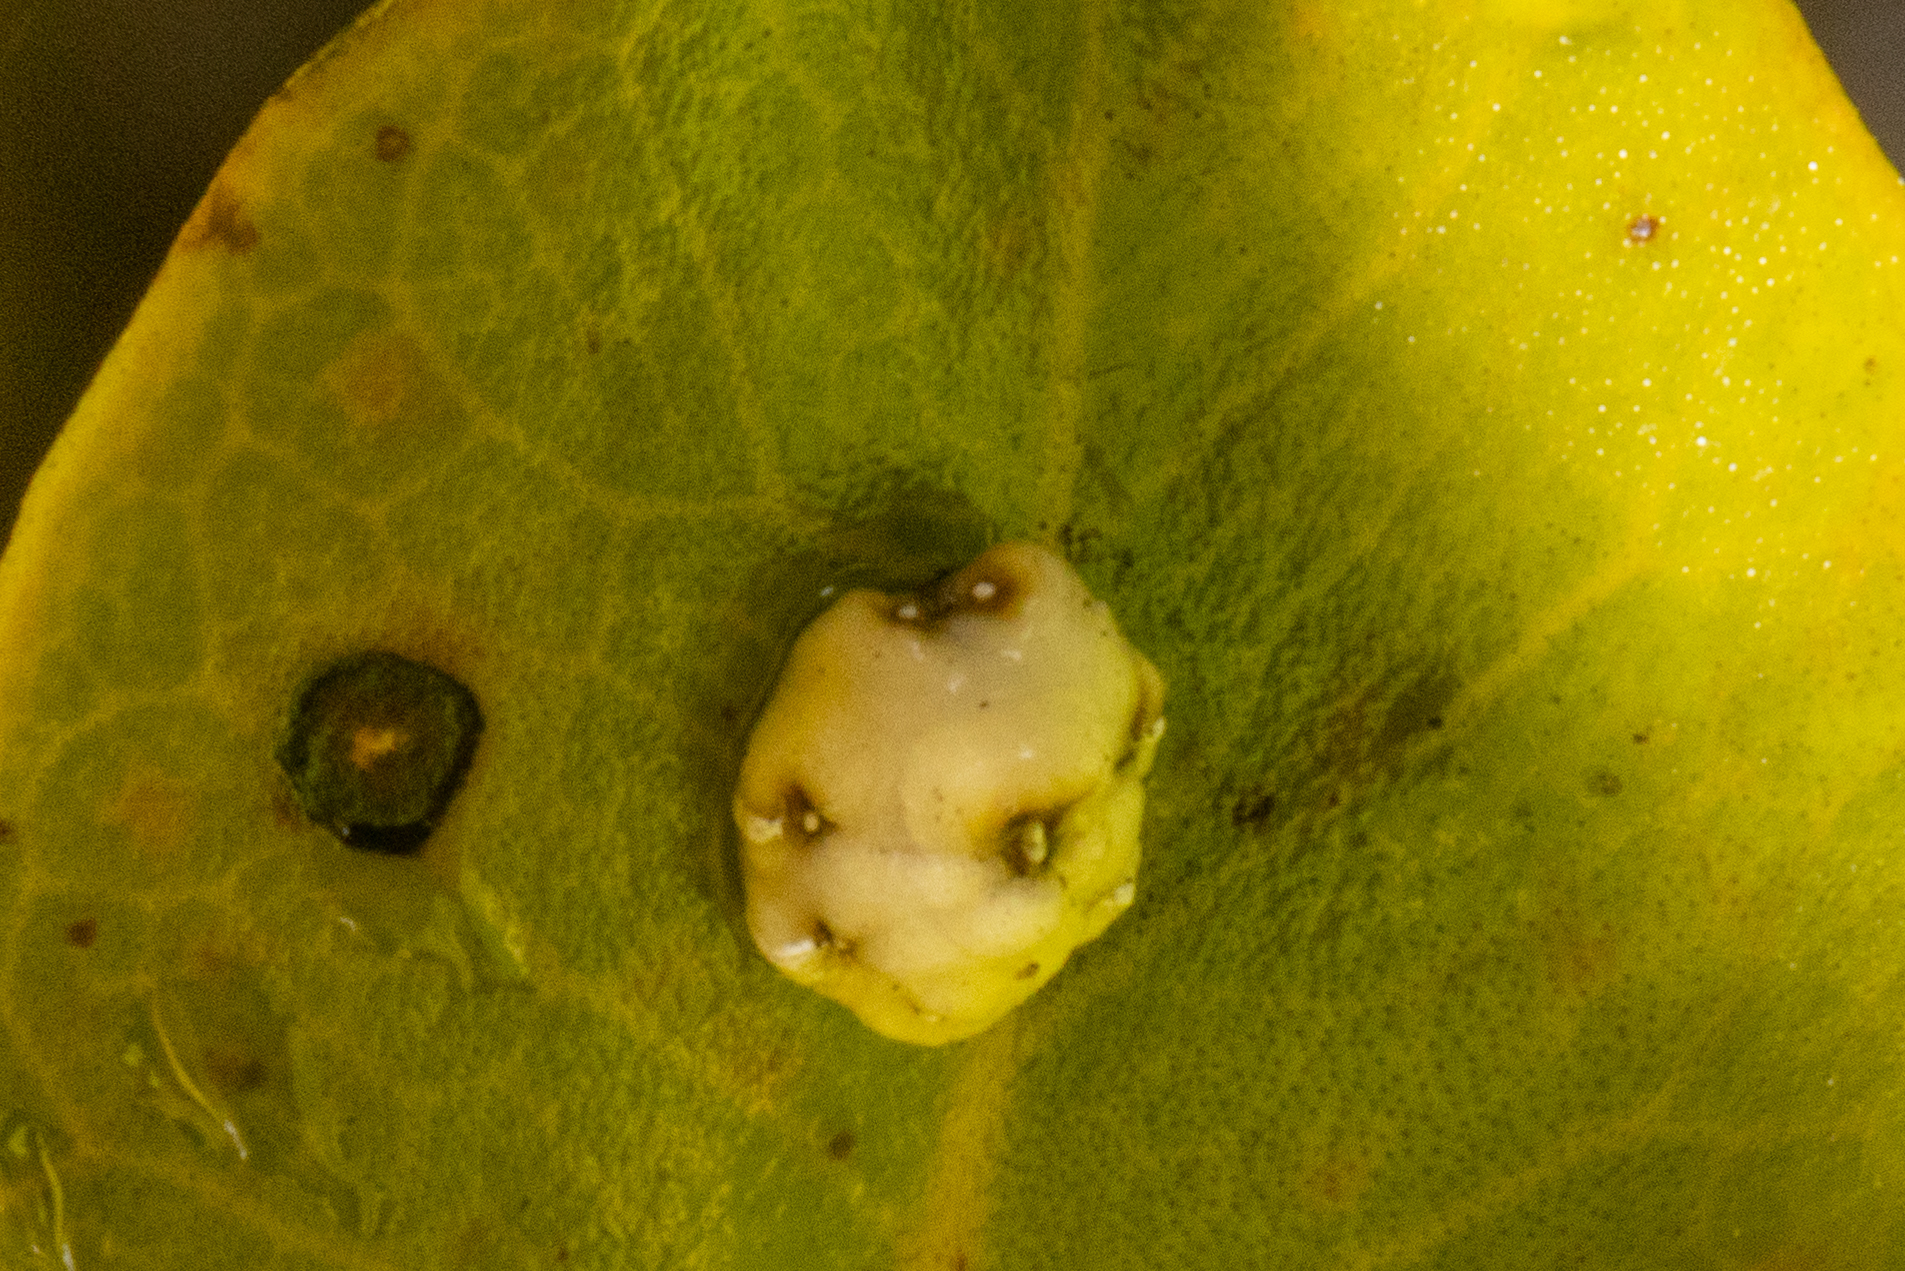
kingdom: Animalia
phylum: Arthropoda
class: Insecta
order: Hemiptera
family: Coccidae
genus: Ceroplastes
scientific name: Ceroplastes sinensis
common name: Hard wax scale
